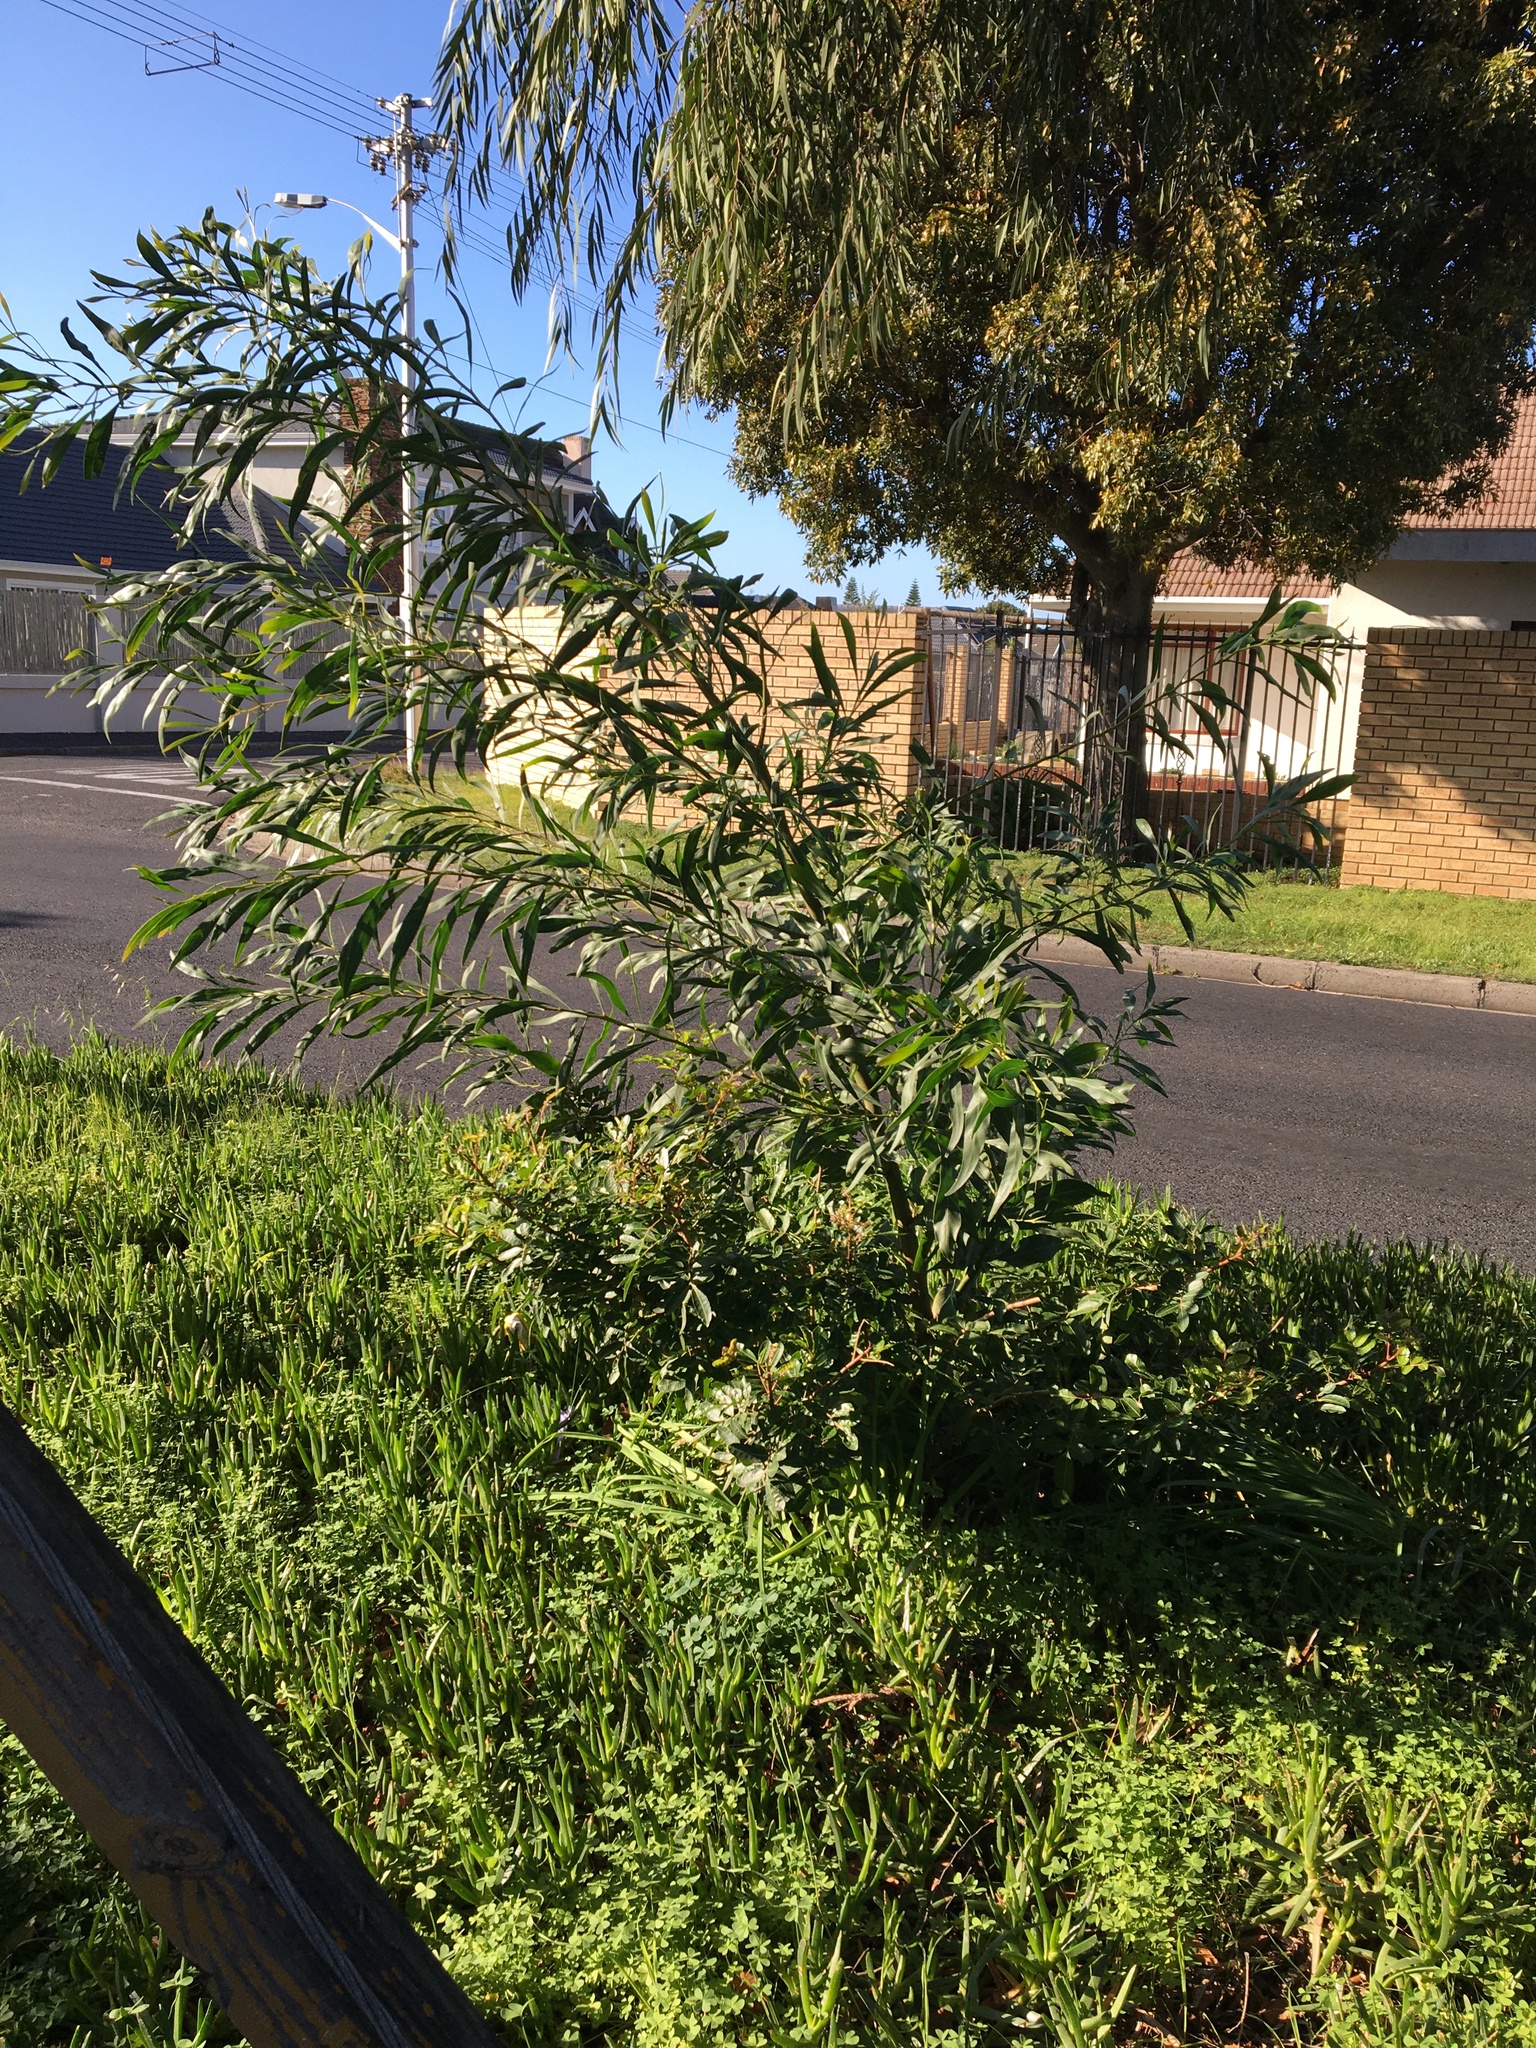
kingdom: Plantae
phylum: Tracheophyta
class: Magnoliopsida
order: Fabales
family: Fabaceae
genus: Acacia
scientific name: Acacia saligna
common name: Orange wattle
